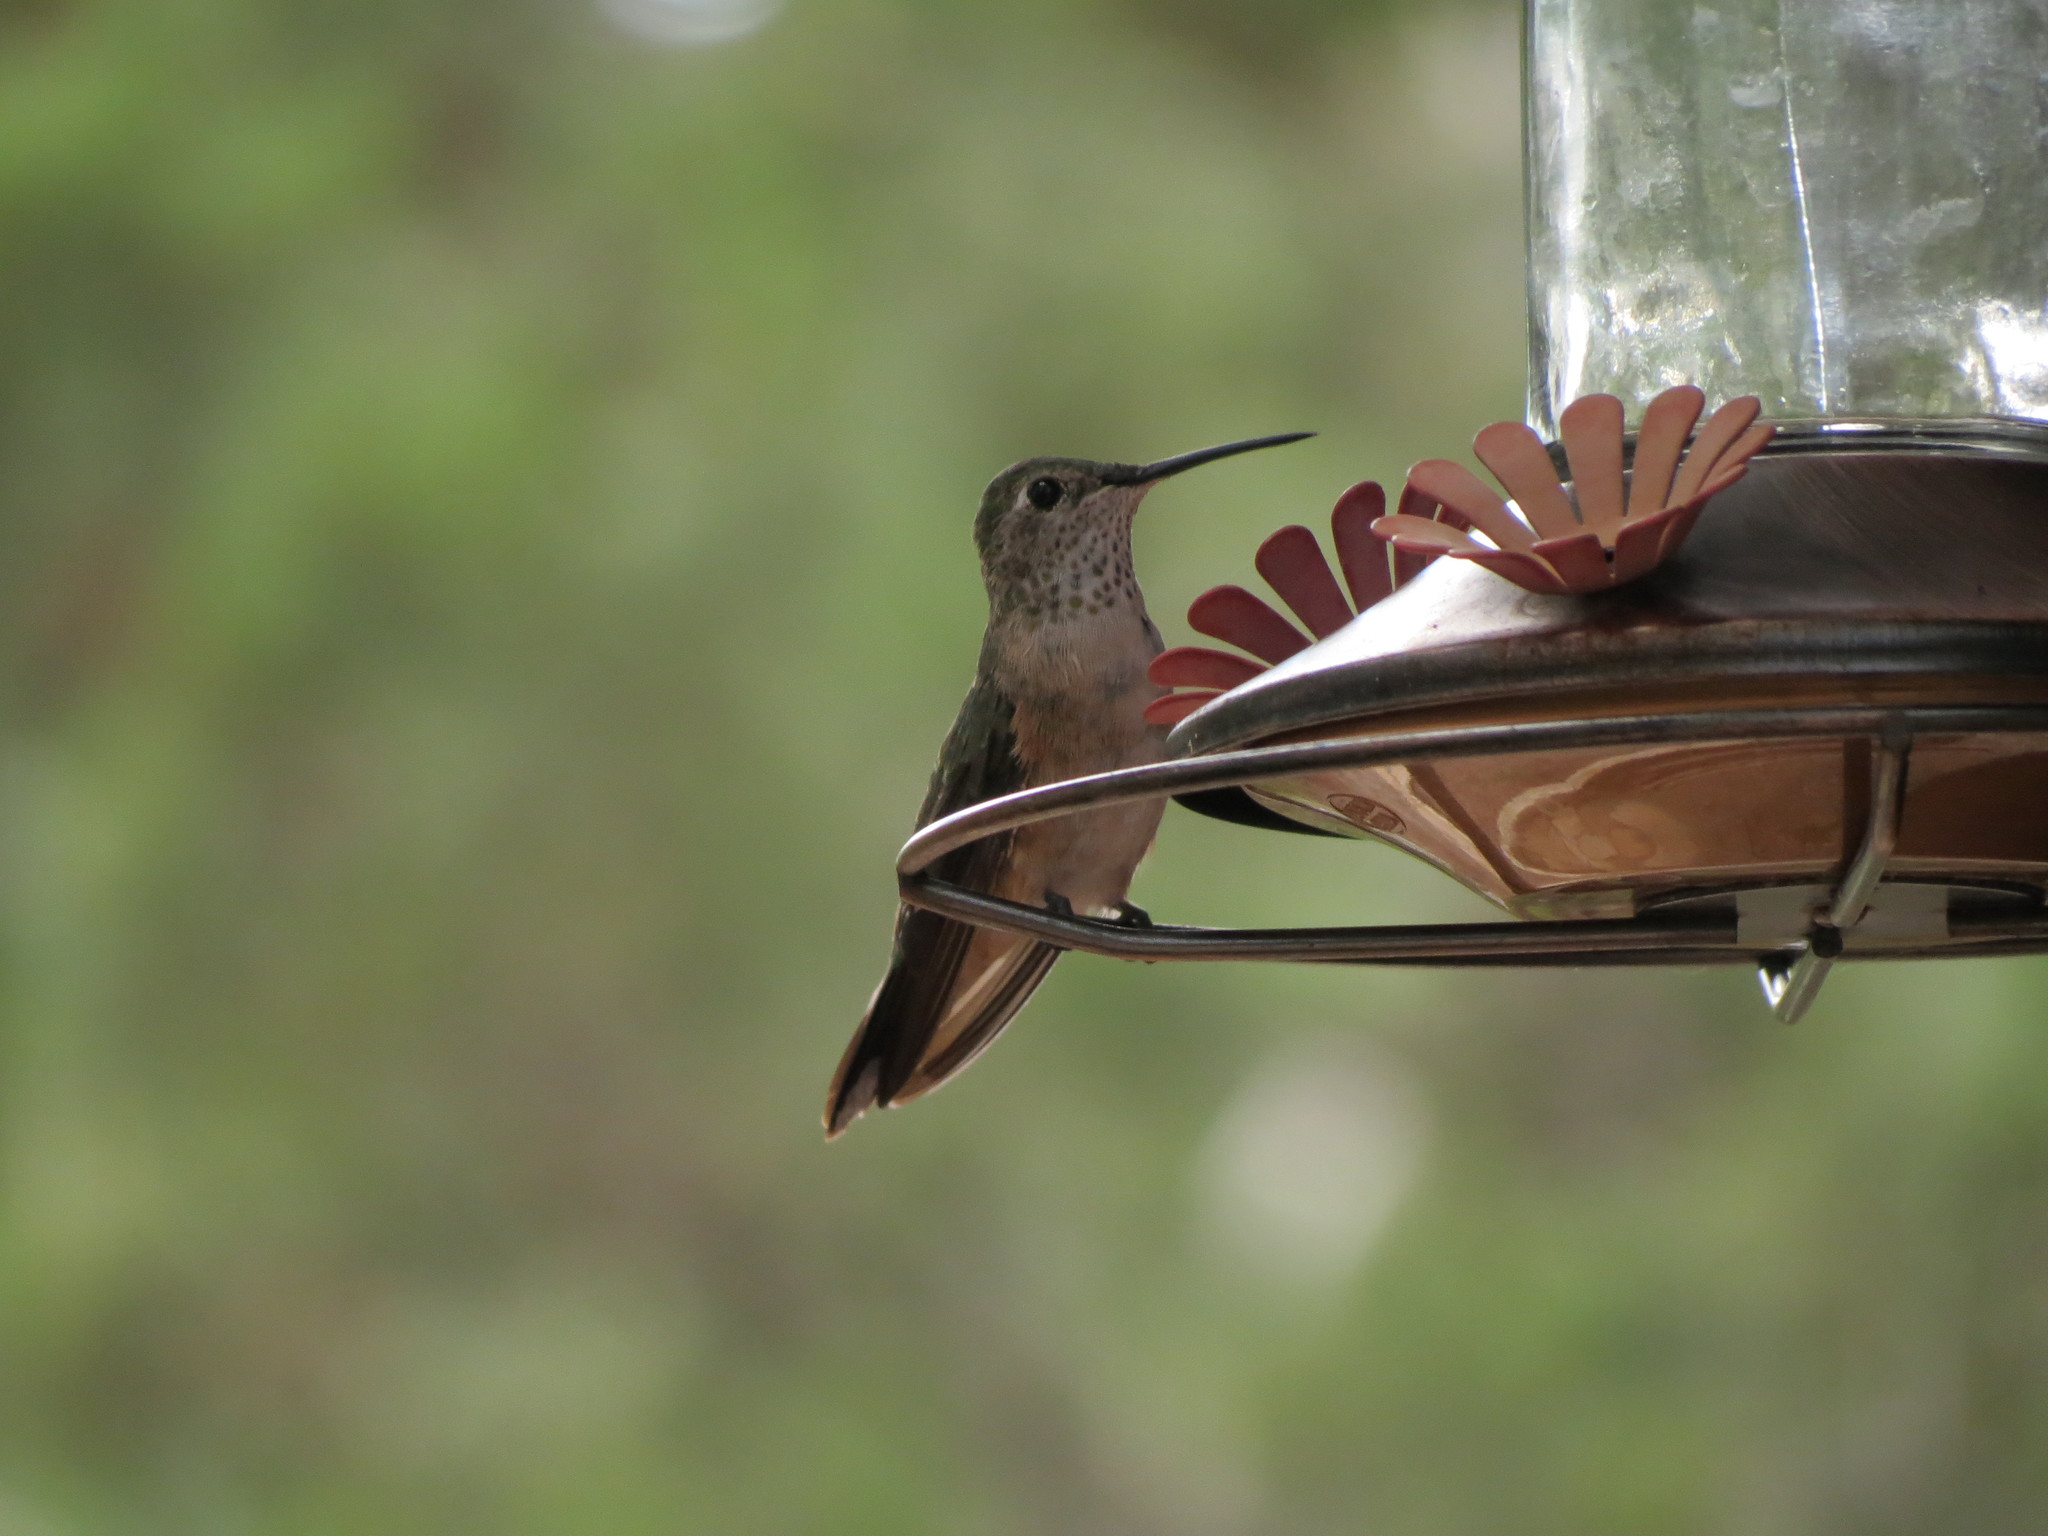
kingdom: Animalia
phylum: Chordata
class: Aves
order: Apodiformes
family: Trochilidae
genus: Selasphorus
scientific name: Selasphorus platycercus
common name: Broad-tailed hummingbird
